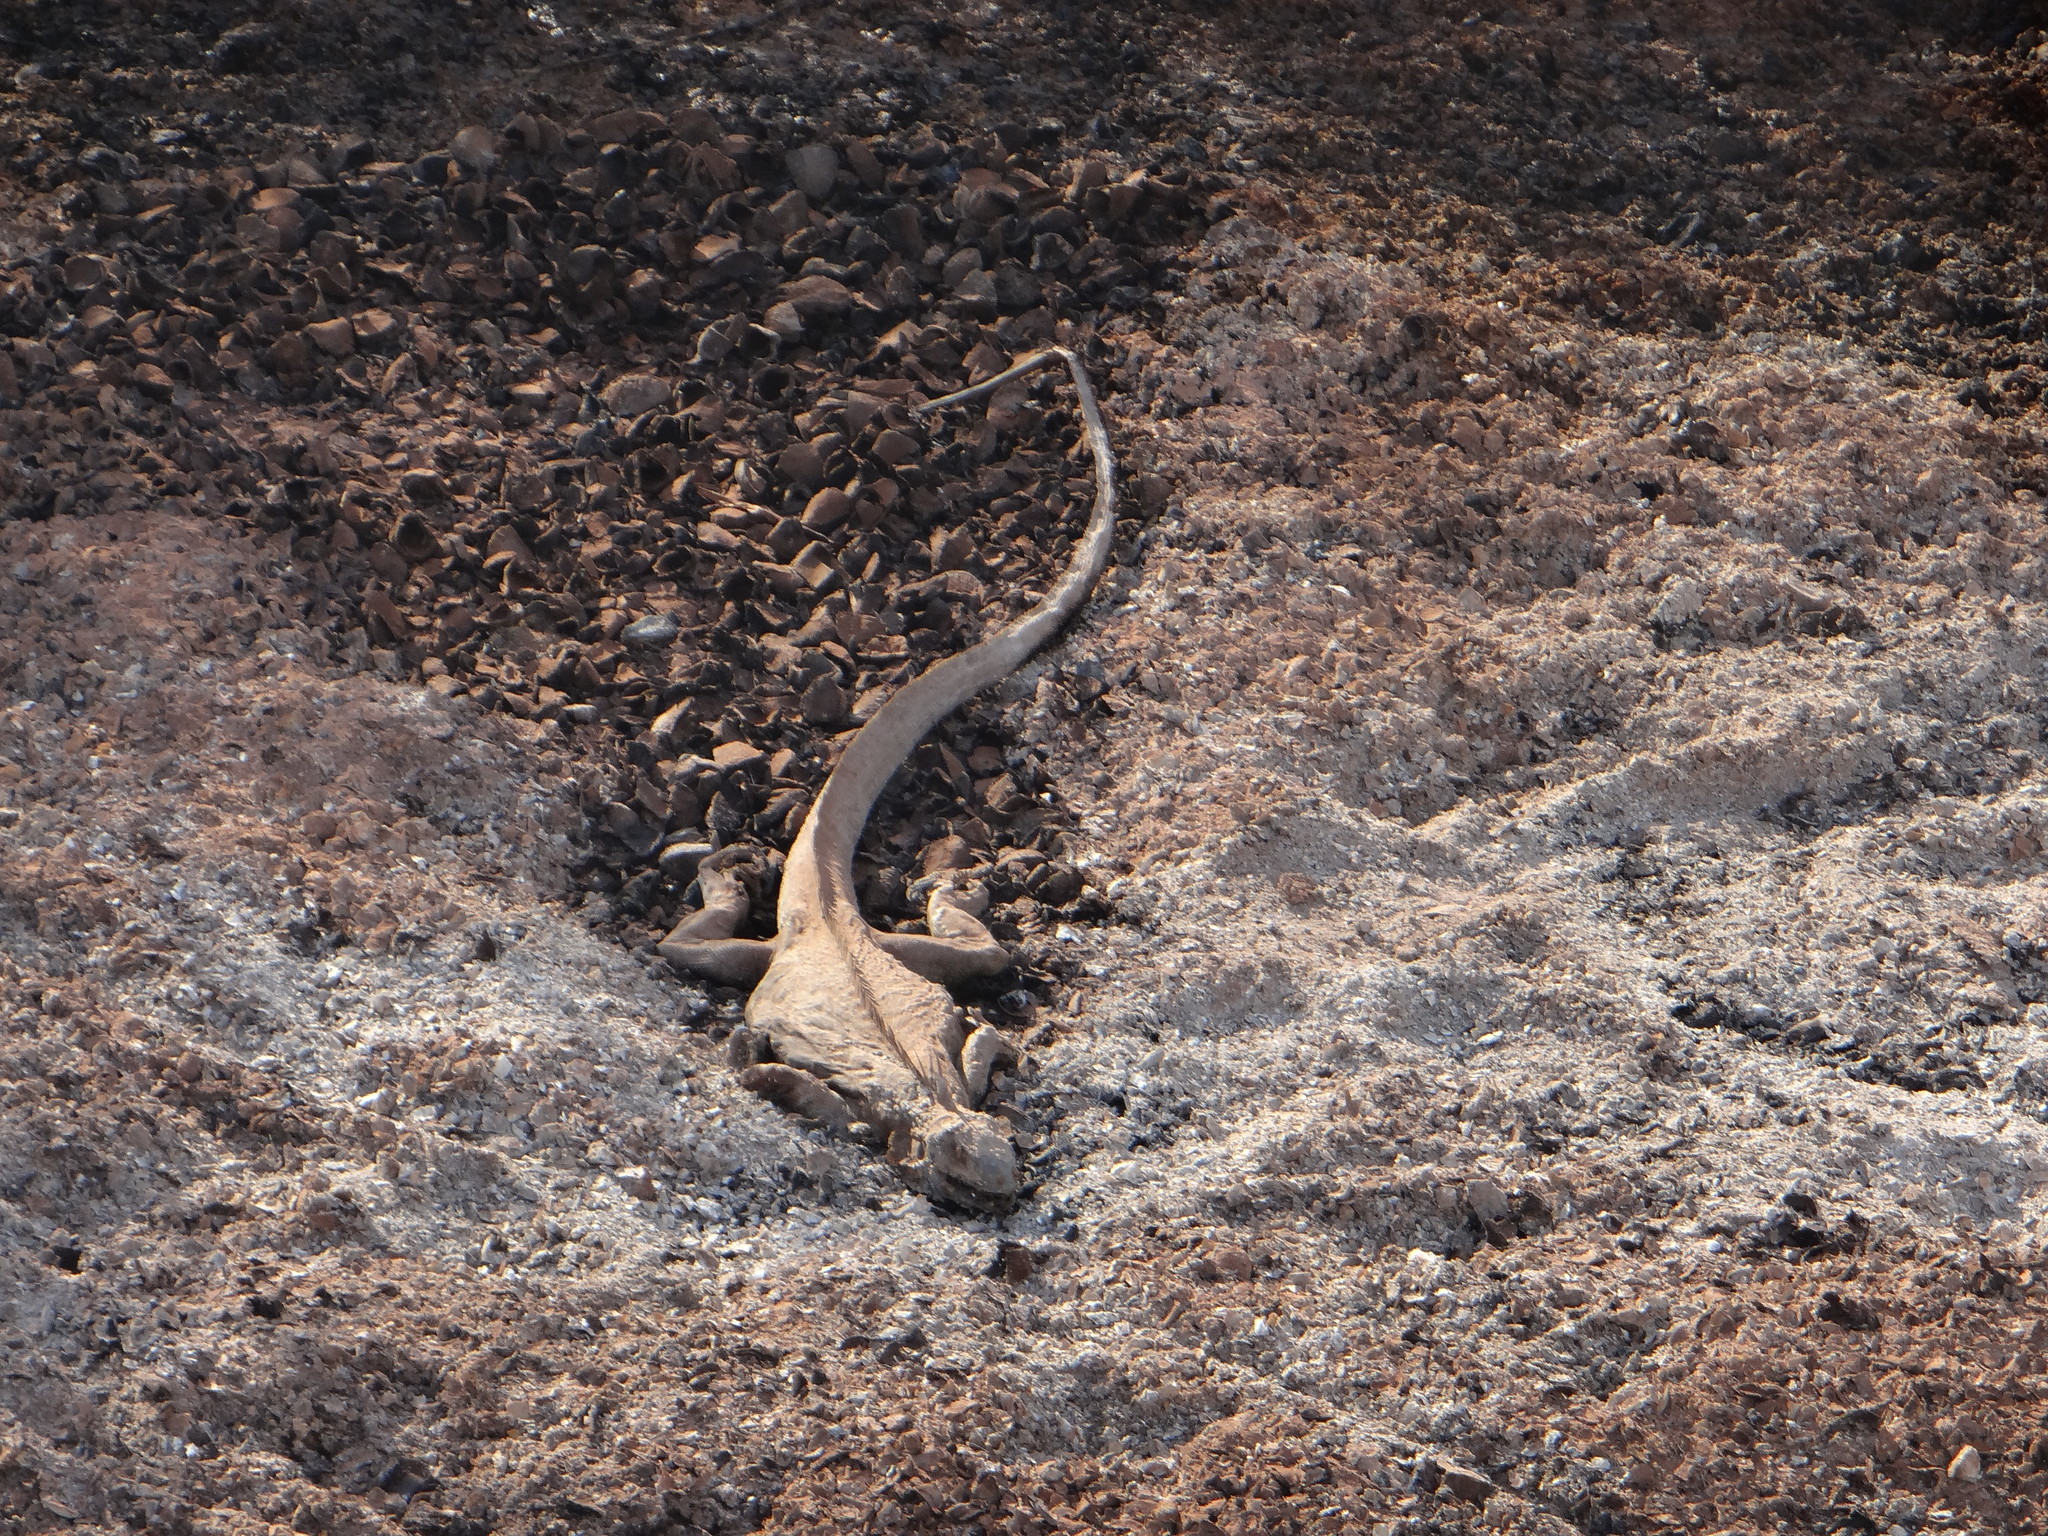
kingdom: Animalia
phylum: Chordata
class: Squamata
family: Iguanidae
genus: Iguana
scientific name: Iguana iguana
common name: Green iguana
